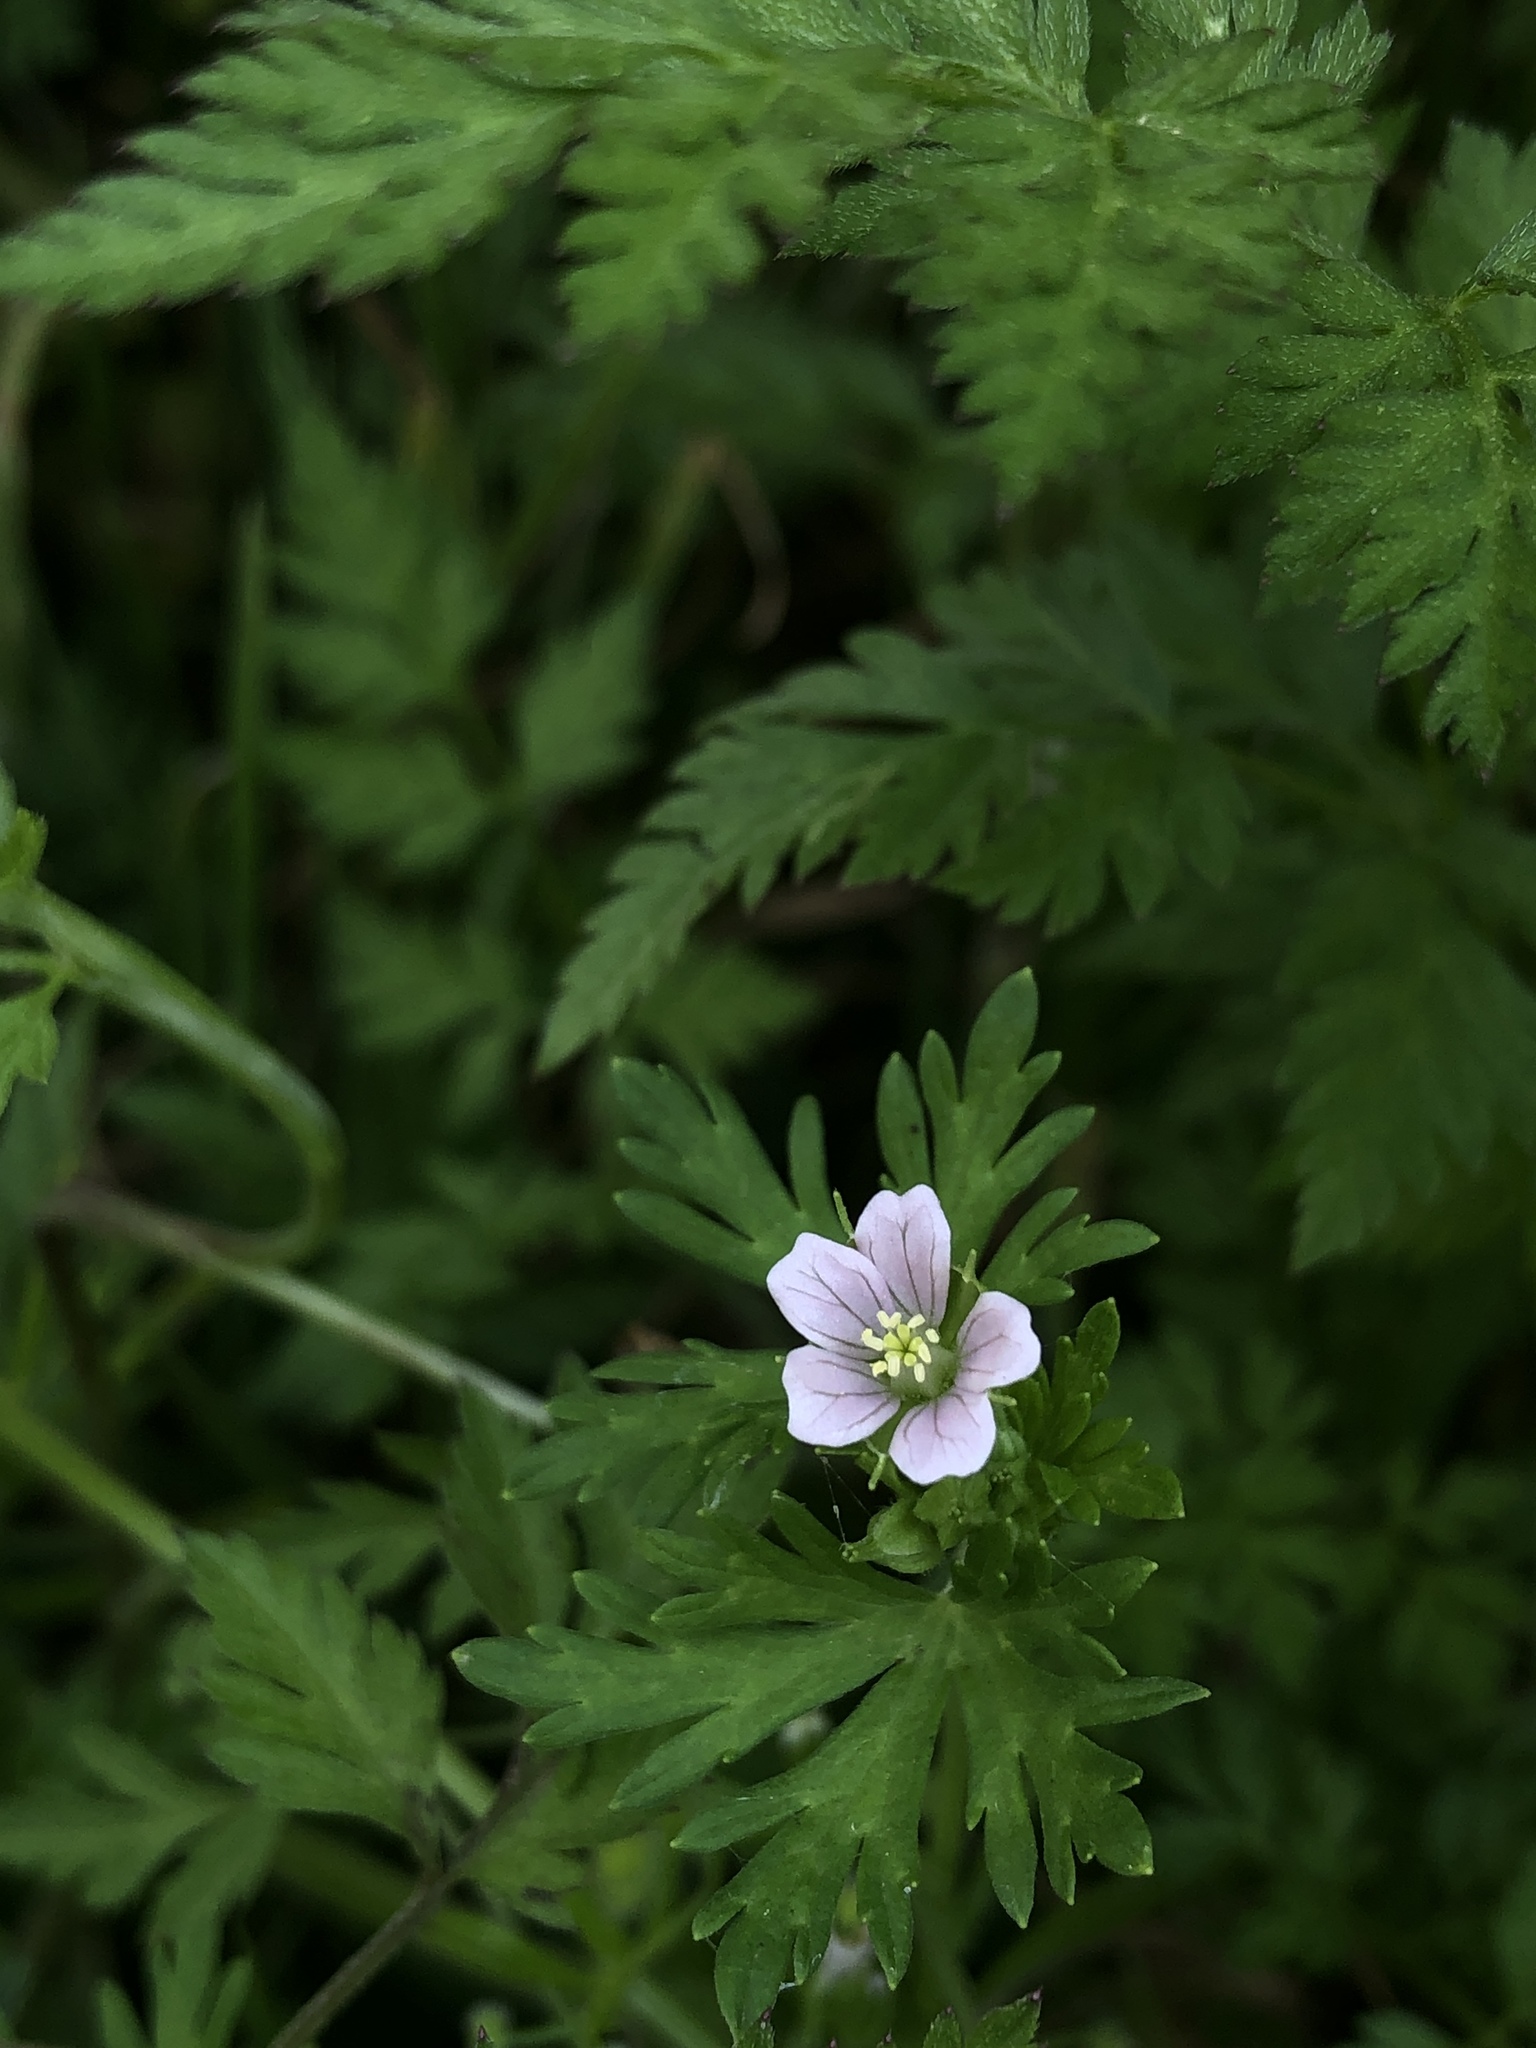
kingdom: Plantae
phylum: Tracheophyta
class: Magnoliopsida
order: Geraniales
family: Geraniaceae
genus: Geranium
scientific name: Geranium carolinianum
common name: Carolina crane's-bill
